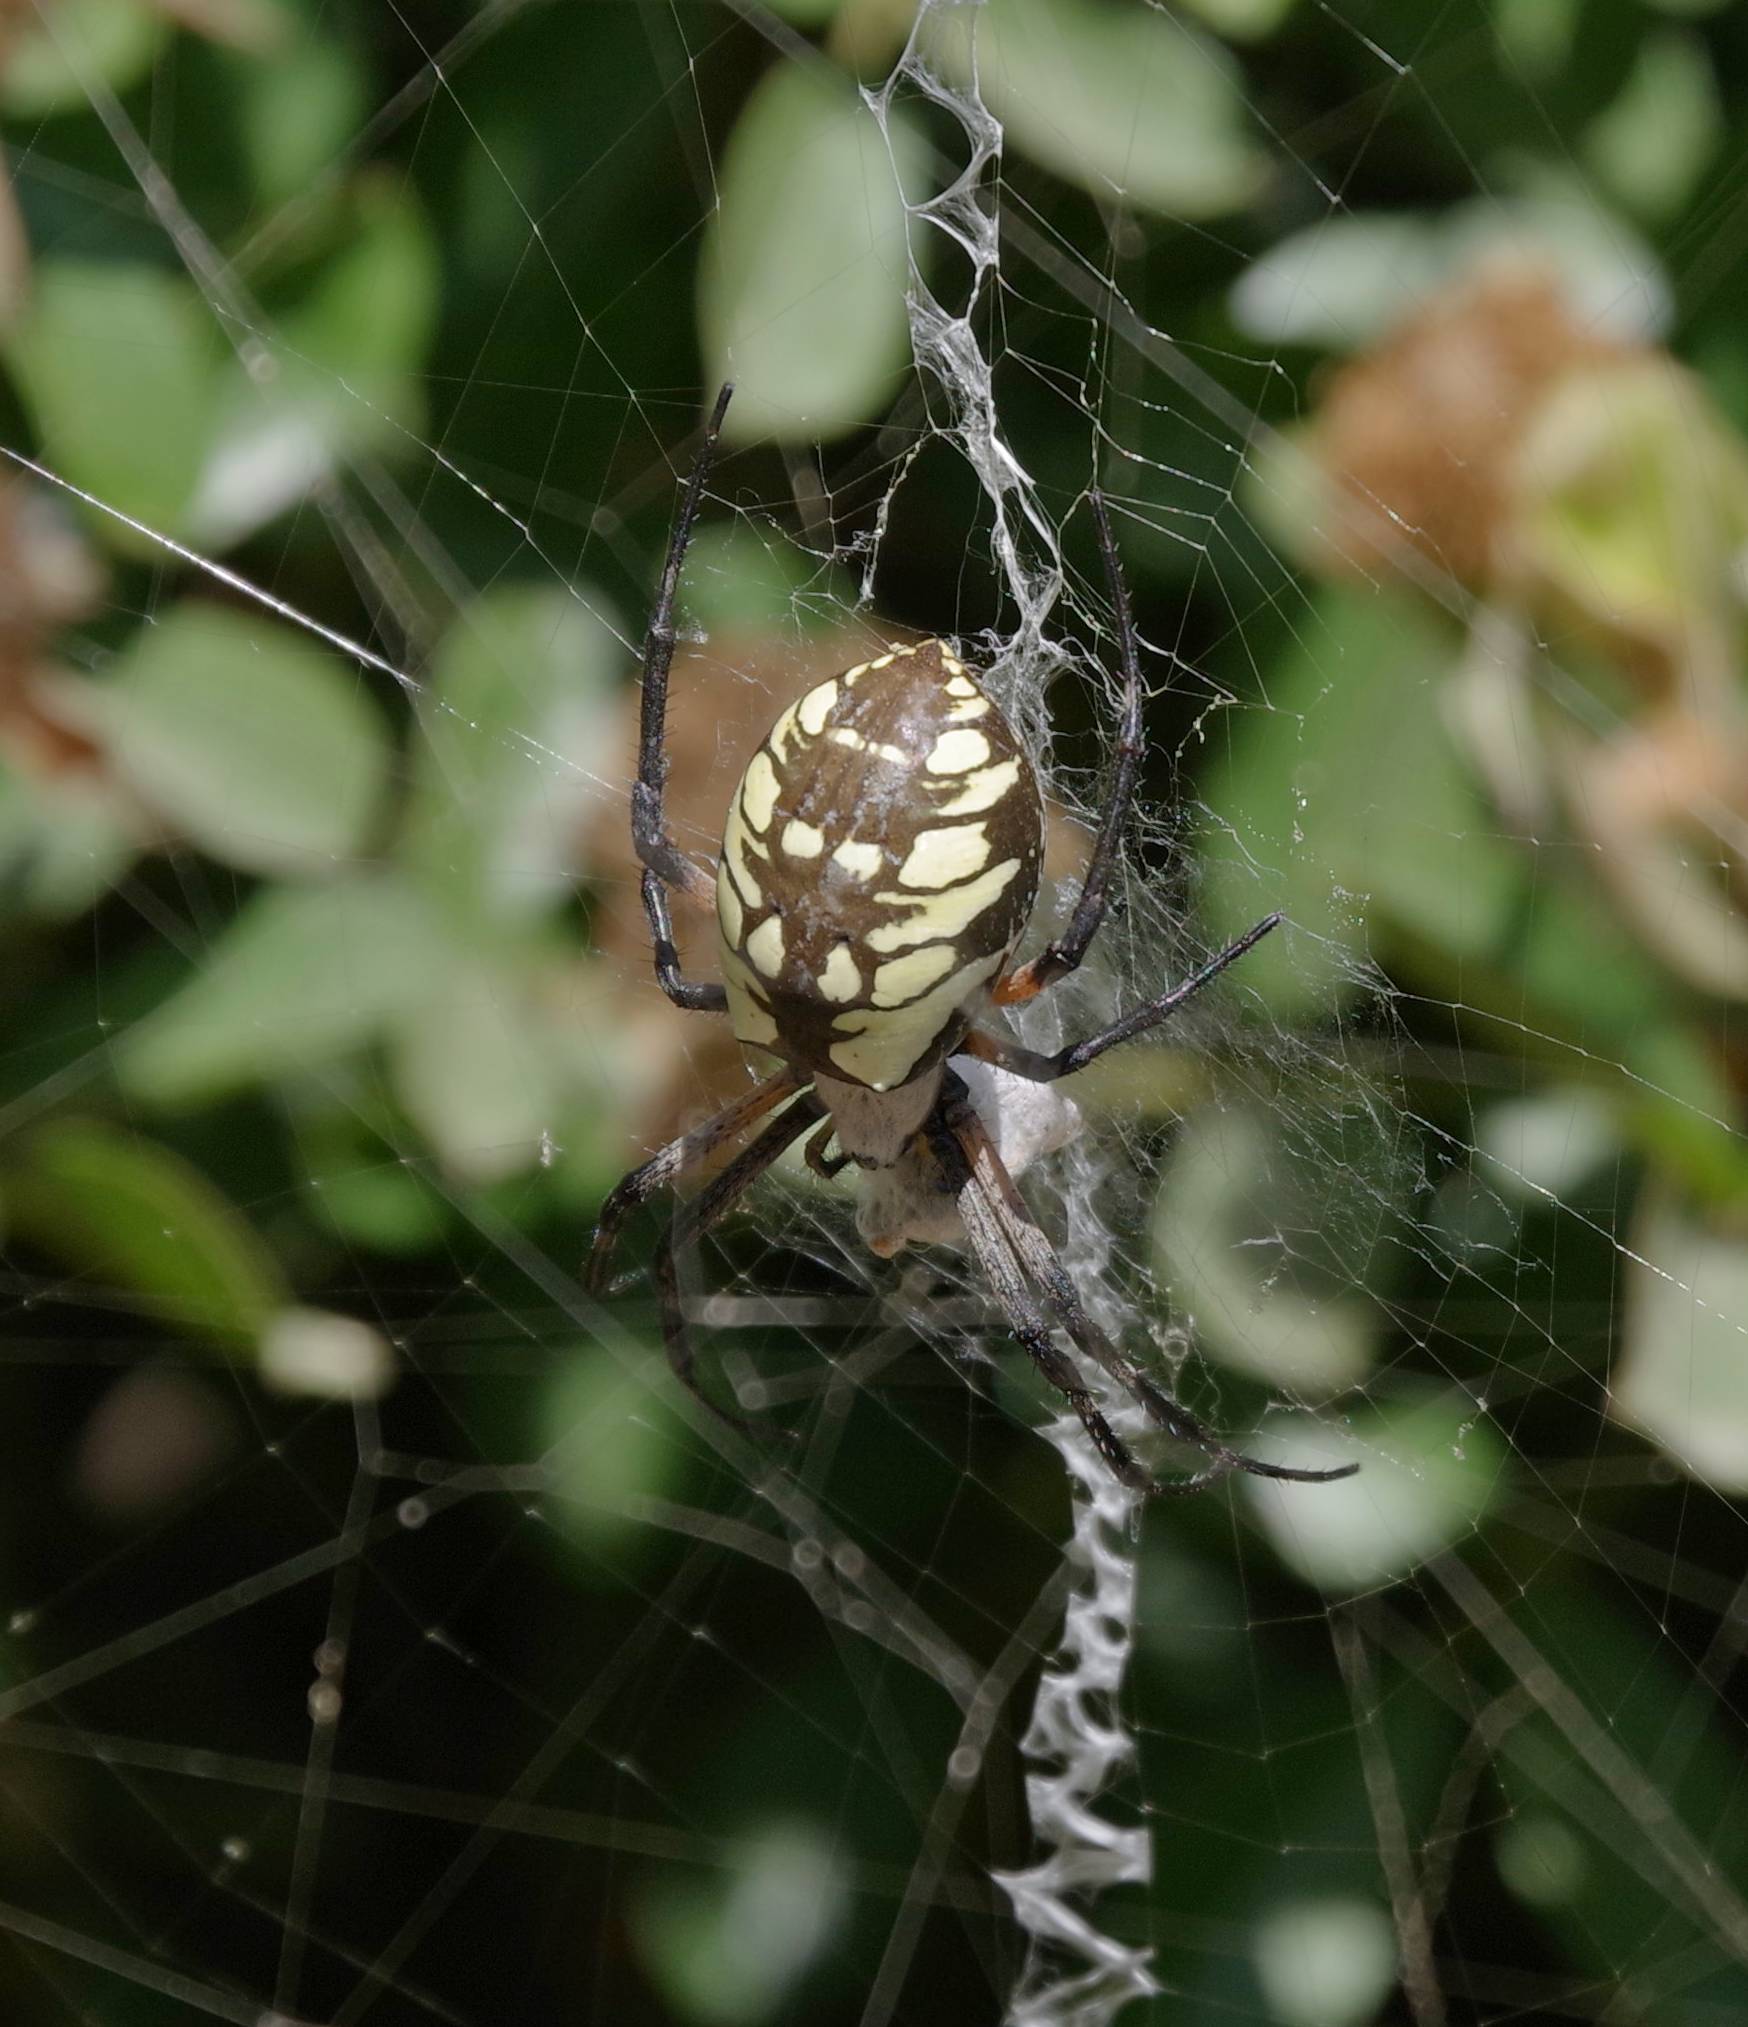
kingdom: Animalia
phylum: Arthropoda
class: Arachnida
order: Araneae
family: Araneidae
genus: Argiope
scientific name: Argiope aurantia
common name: Orb weavers
